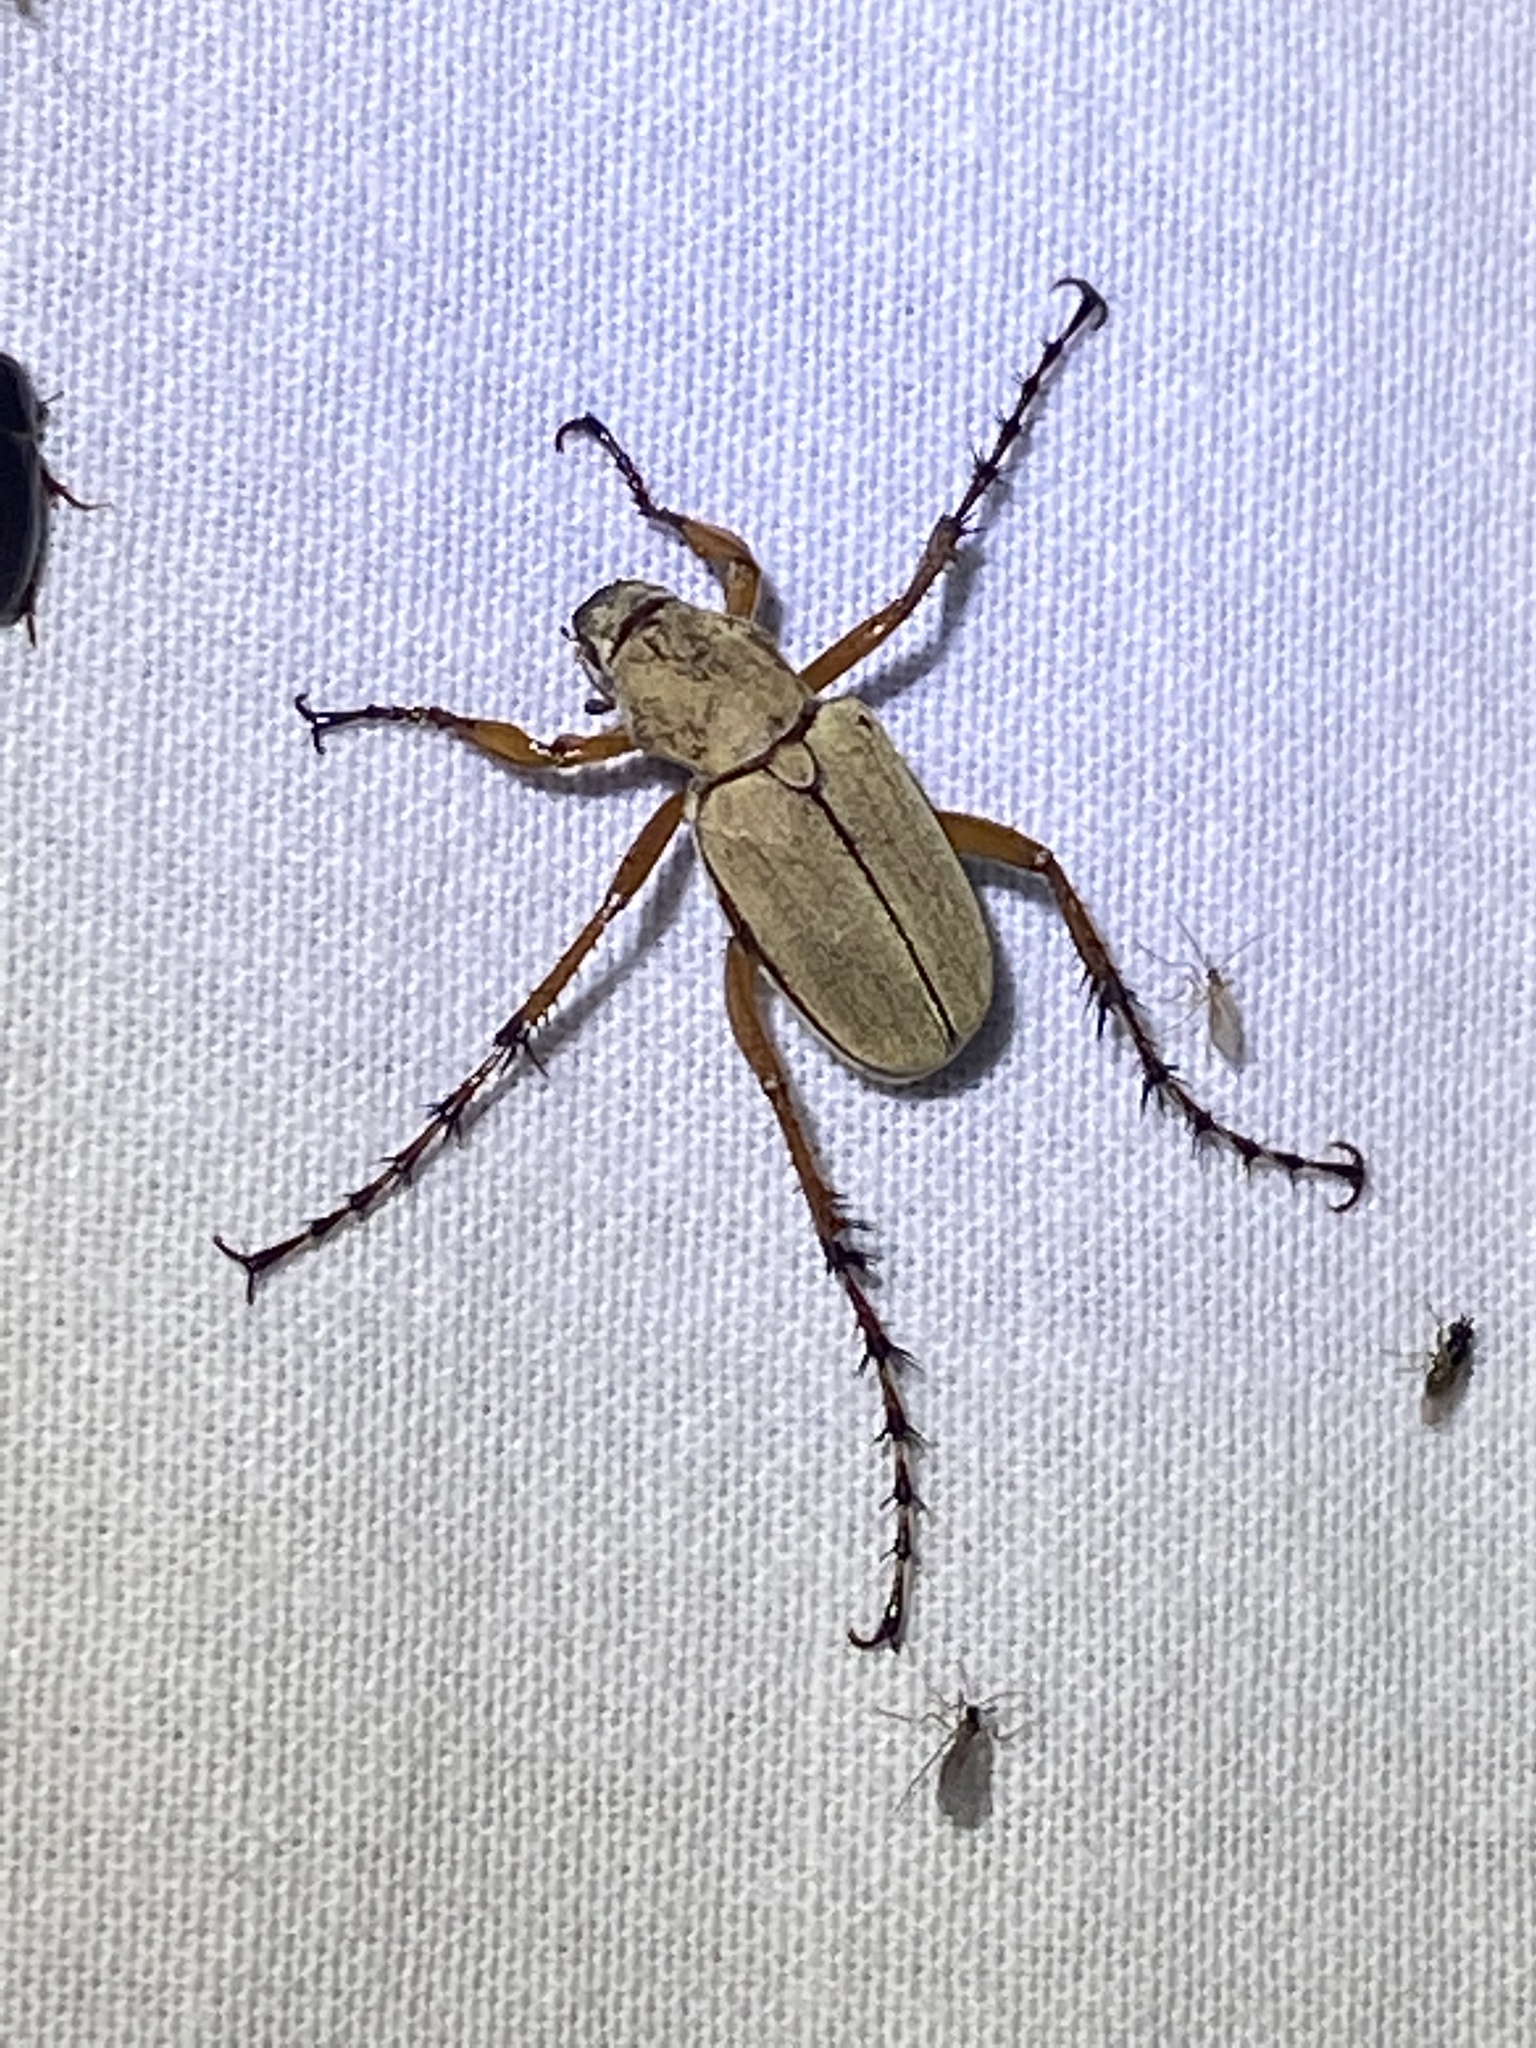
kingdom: Animalia
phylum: Arthropoda
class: Insecta
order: Coleoptera
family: Scarabaeidae
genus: Macrodactylus
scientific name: Macrodactylus subspinosus
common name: American rose chafer
